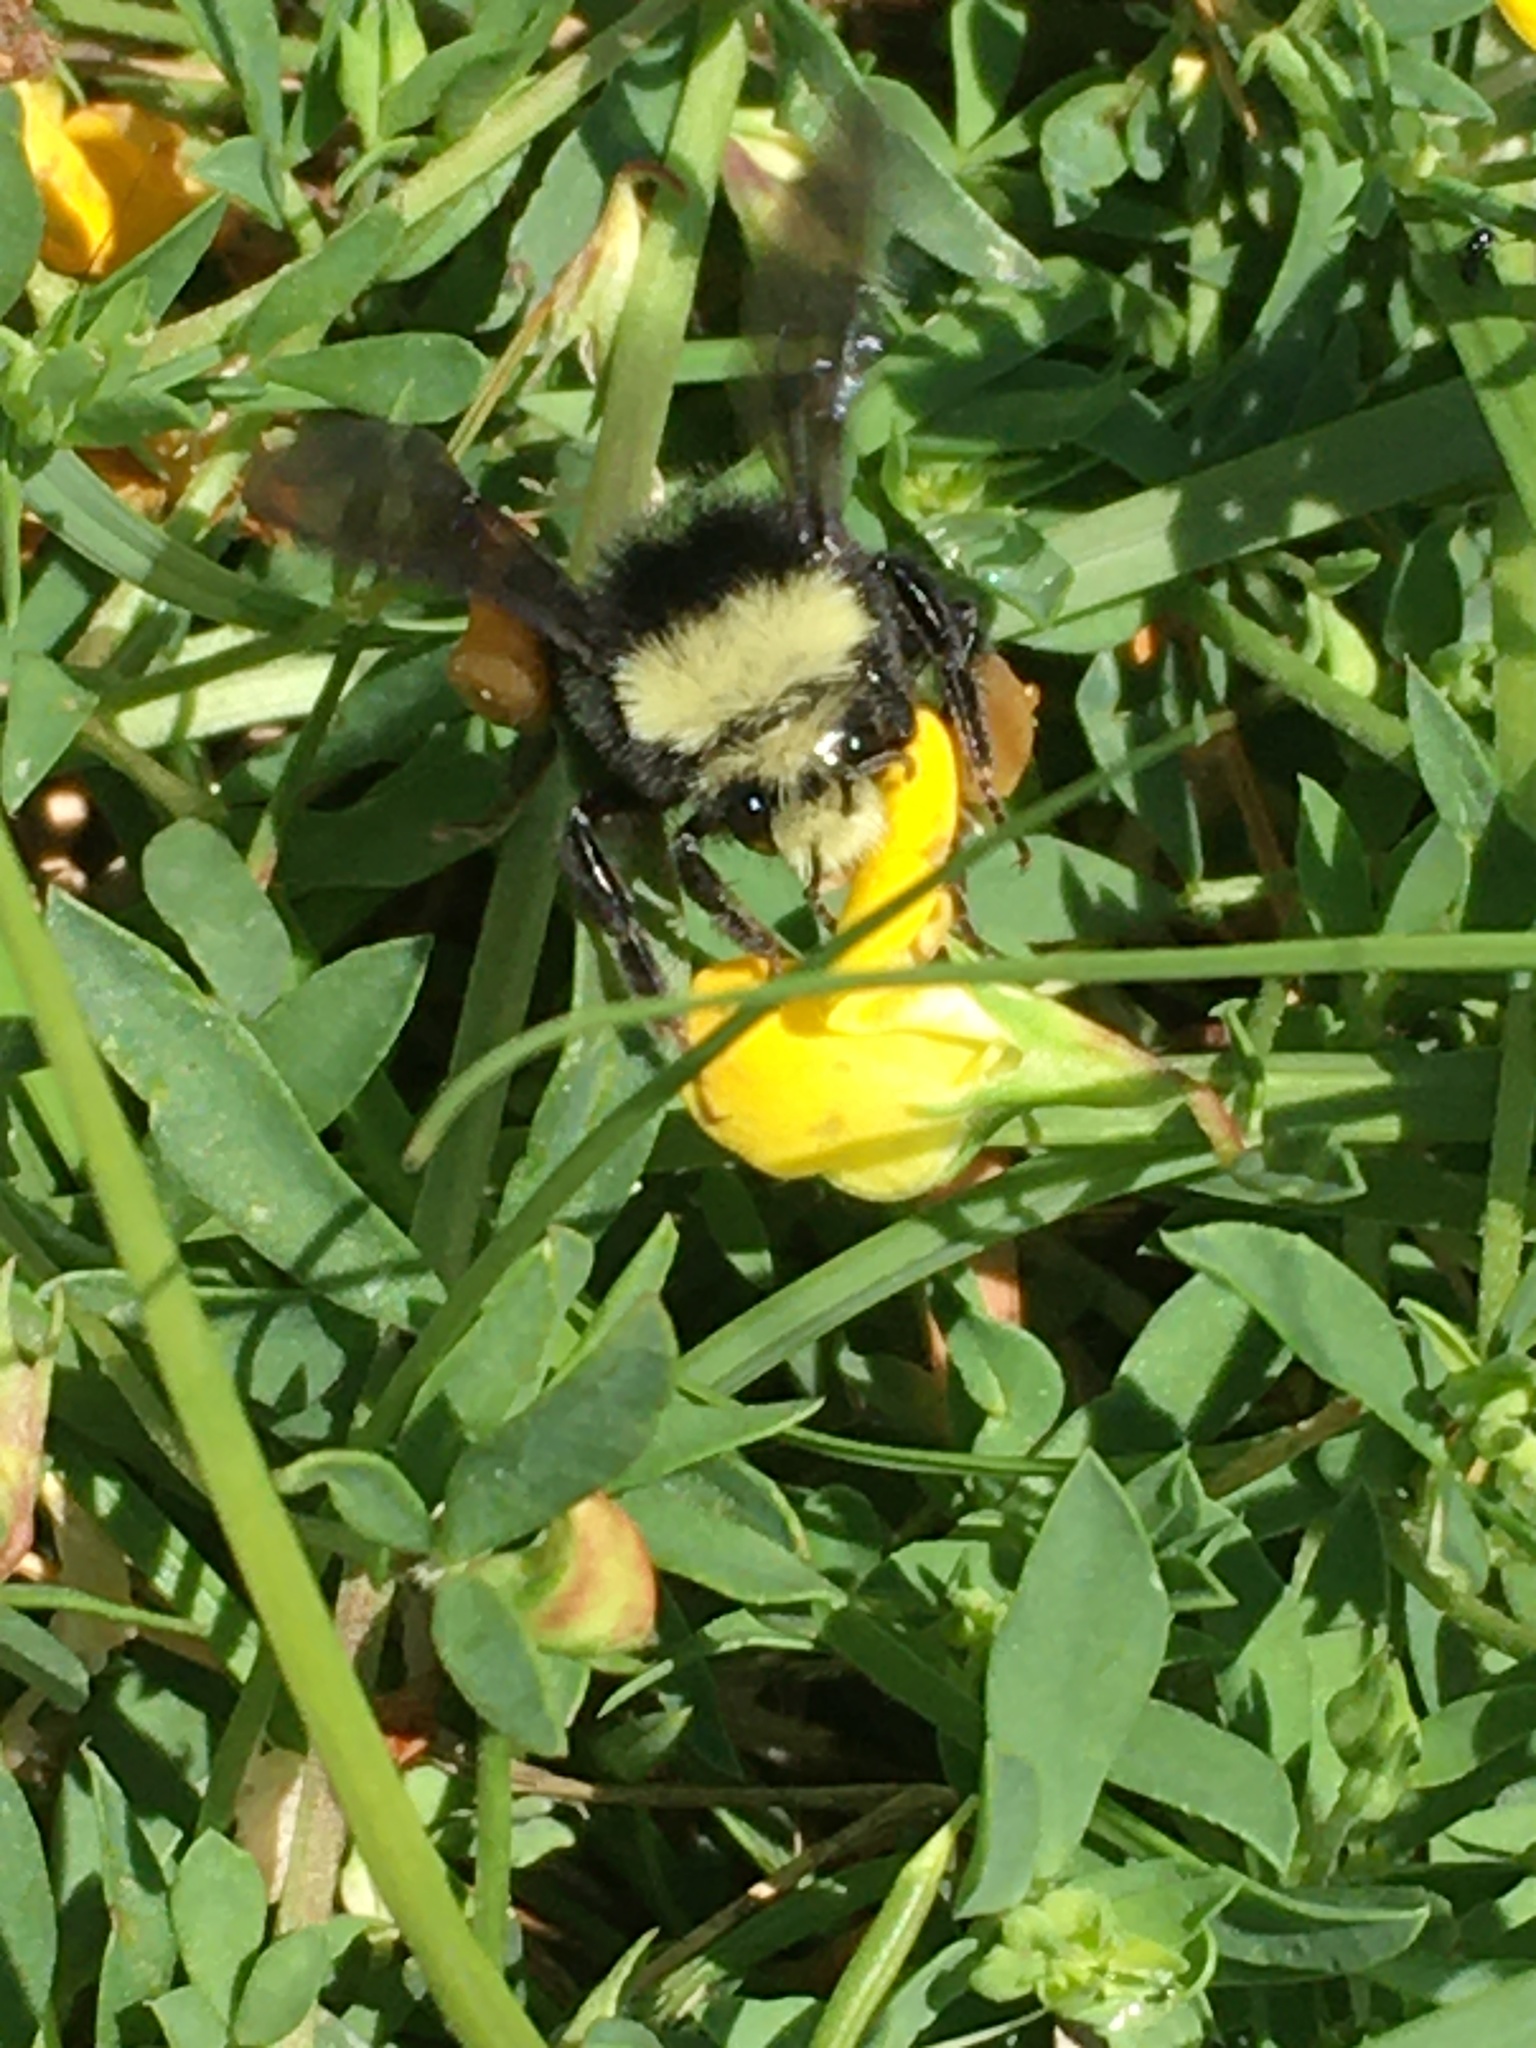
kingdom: Animalia
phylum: Arthropoda
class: Insecta
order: Hymenoptera
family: Apidae
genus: Bombus
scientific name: Bombus vosnesenskii
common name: Vosnesensky bumble bee
